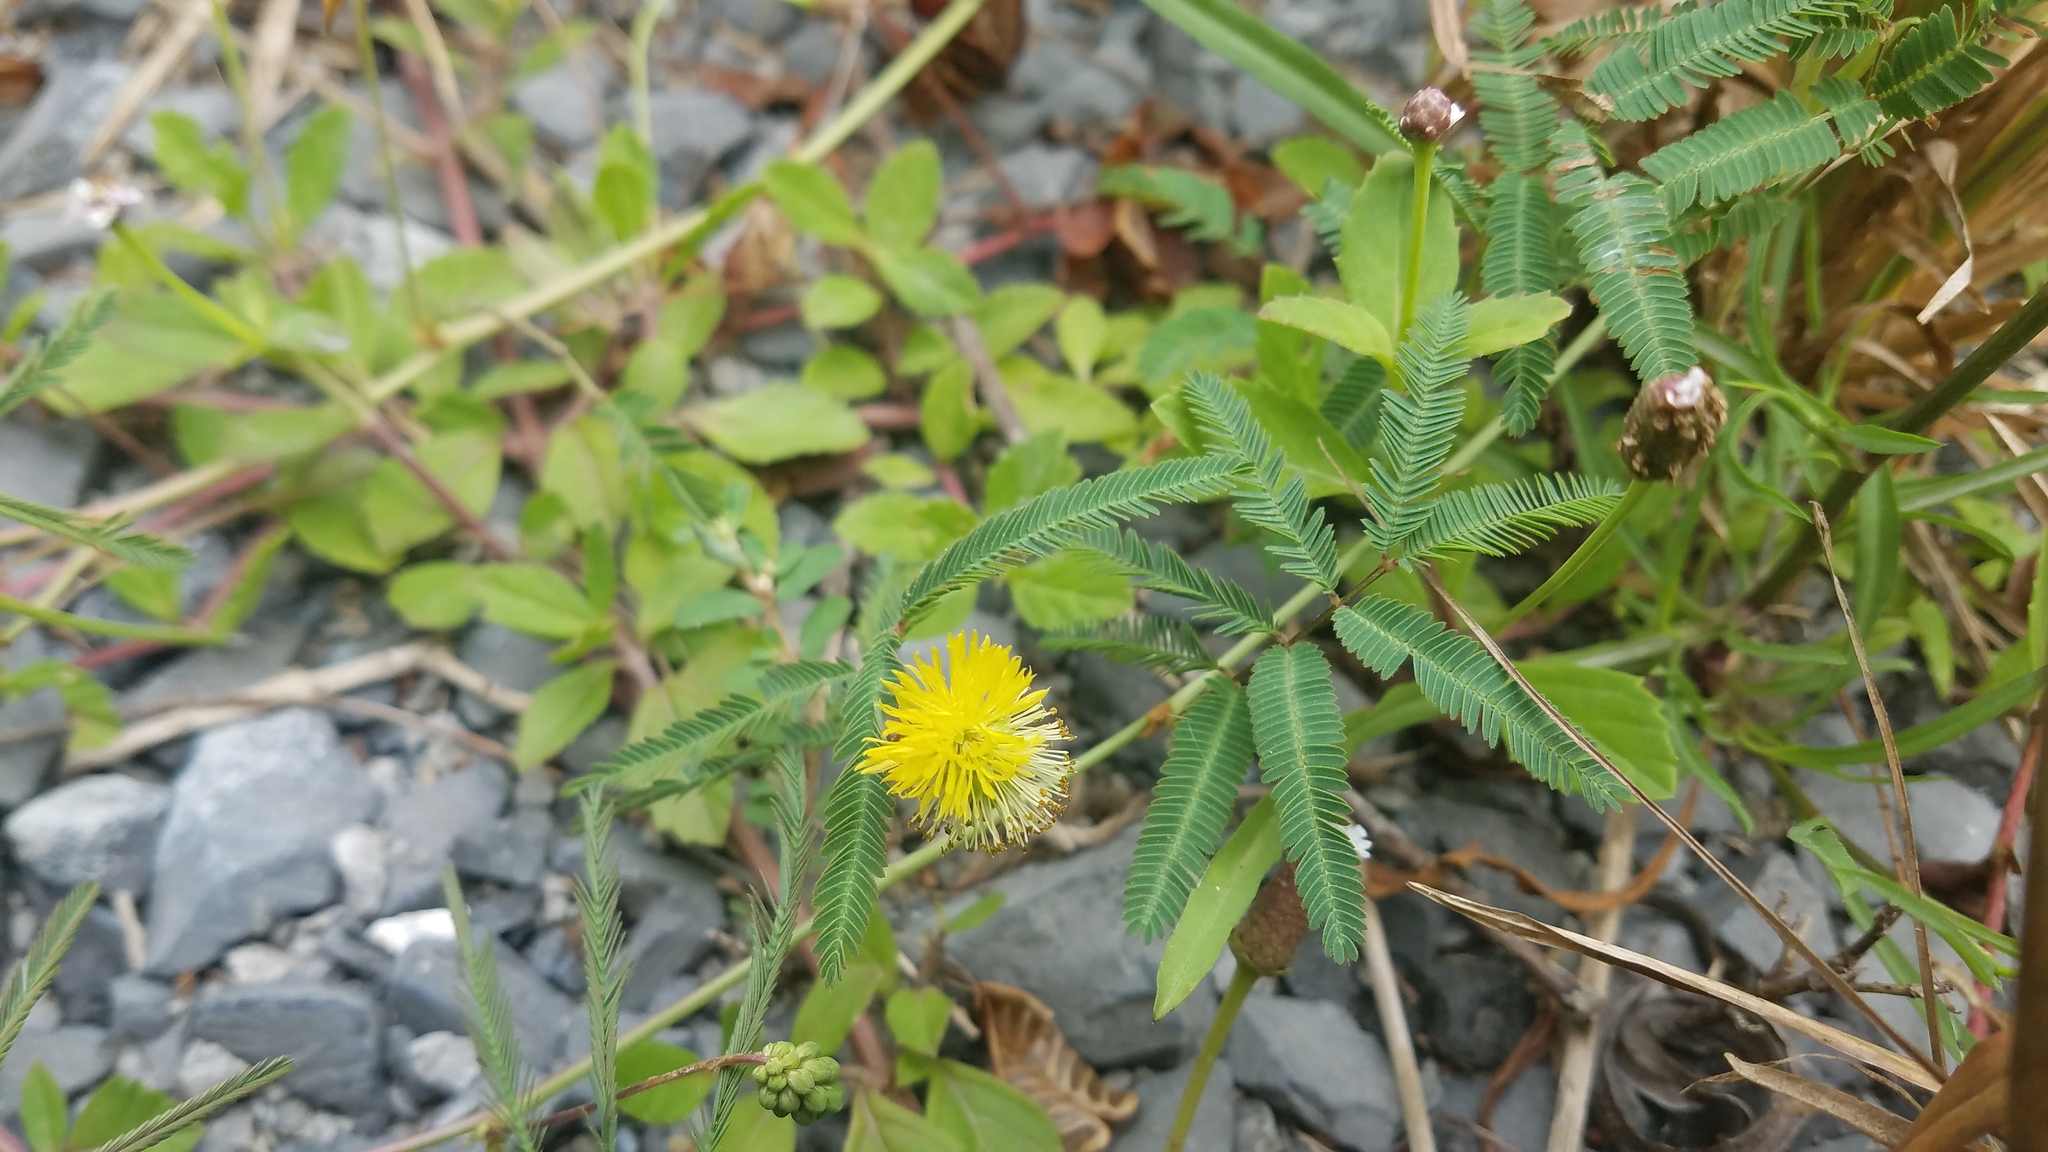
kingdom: Plantae
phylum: Tracheophyta
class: Magnoliopsida
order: Fabales
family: Fabaceae
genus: Neptunia
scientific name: Neptunia pubescens
